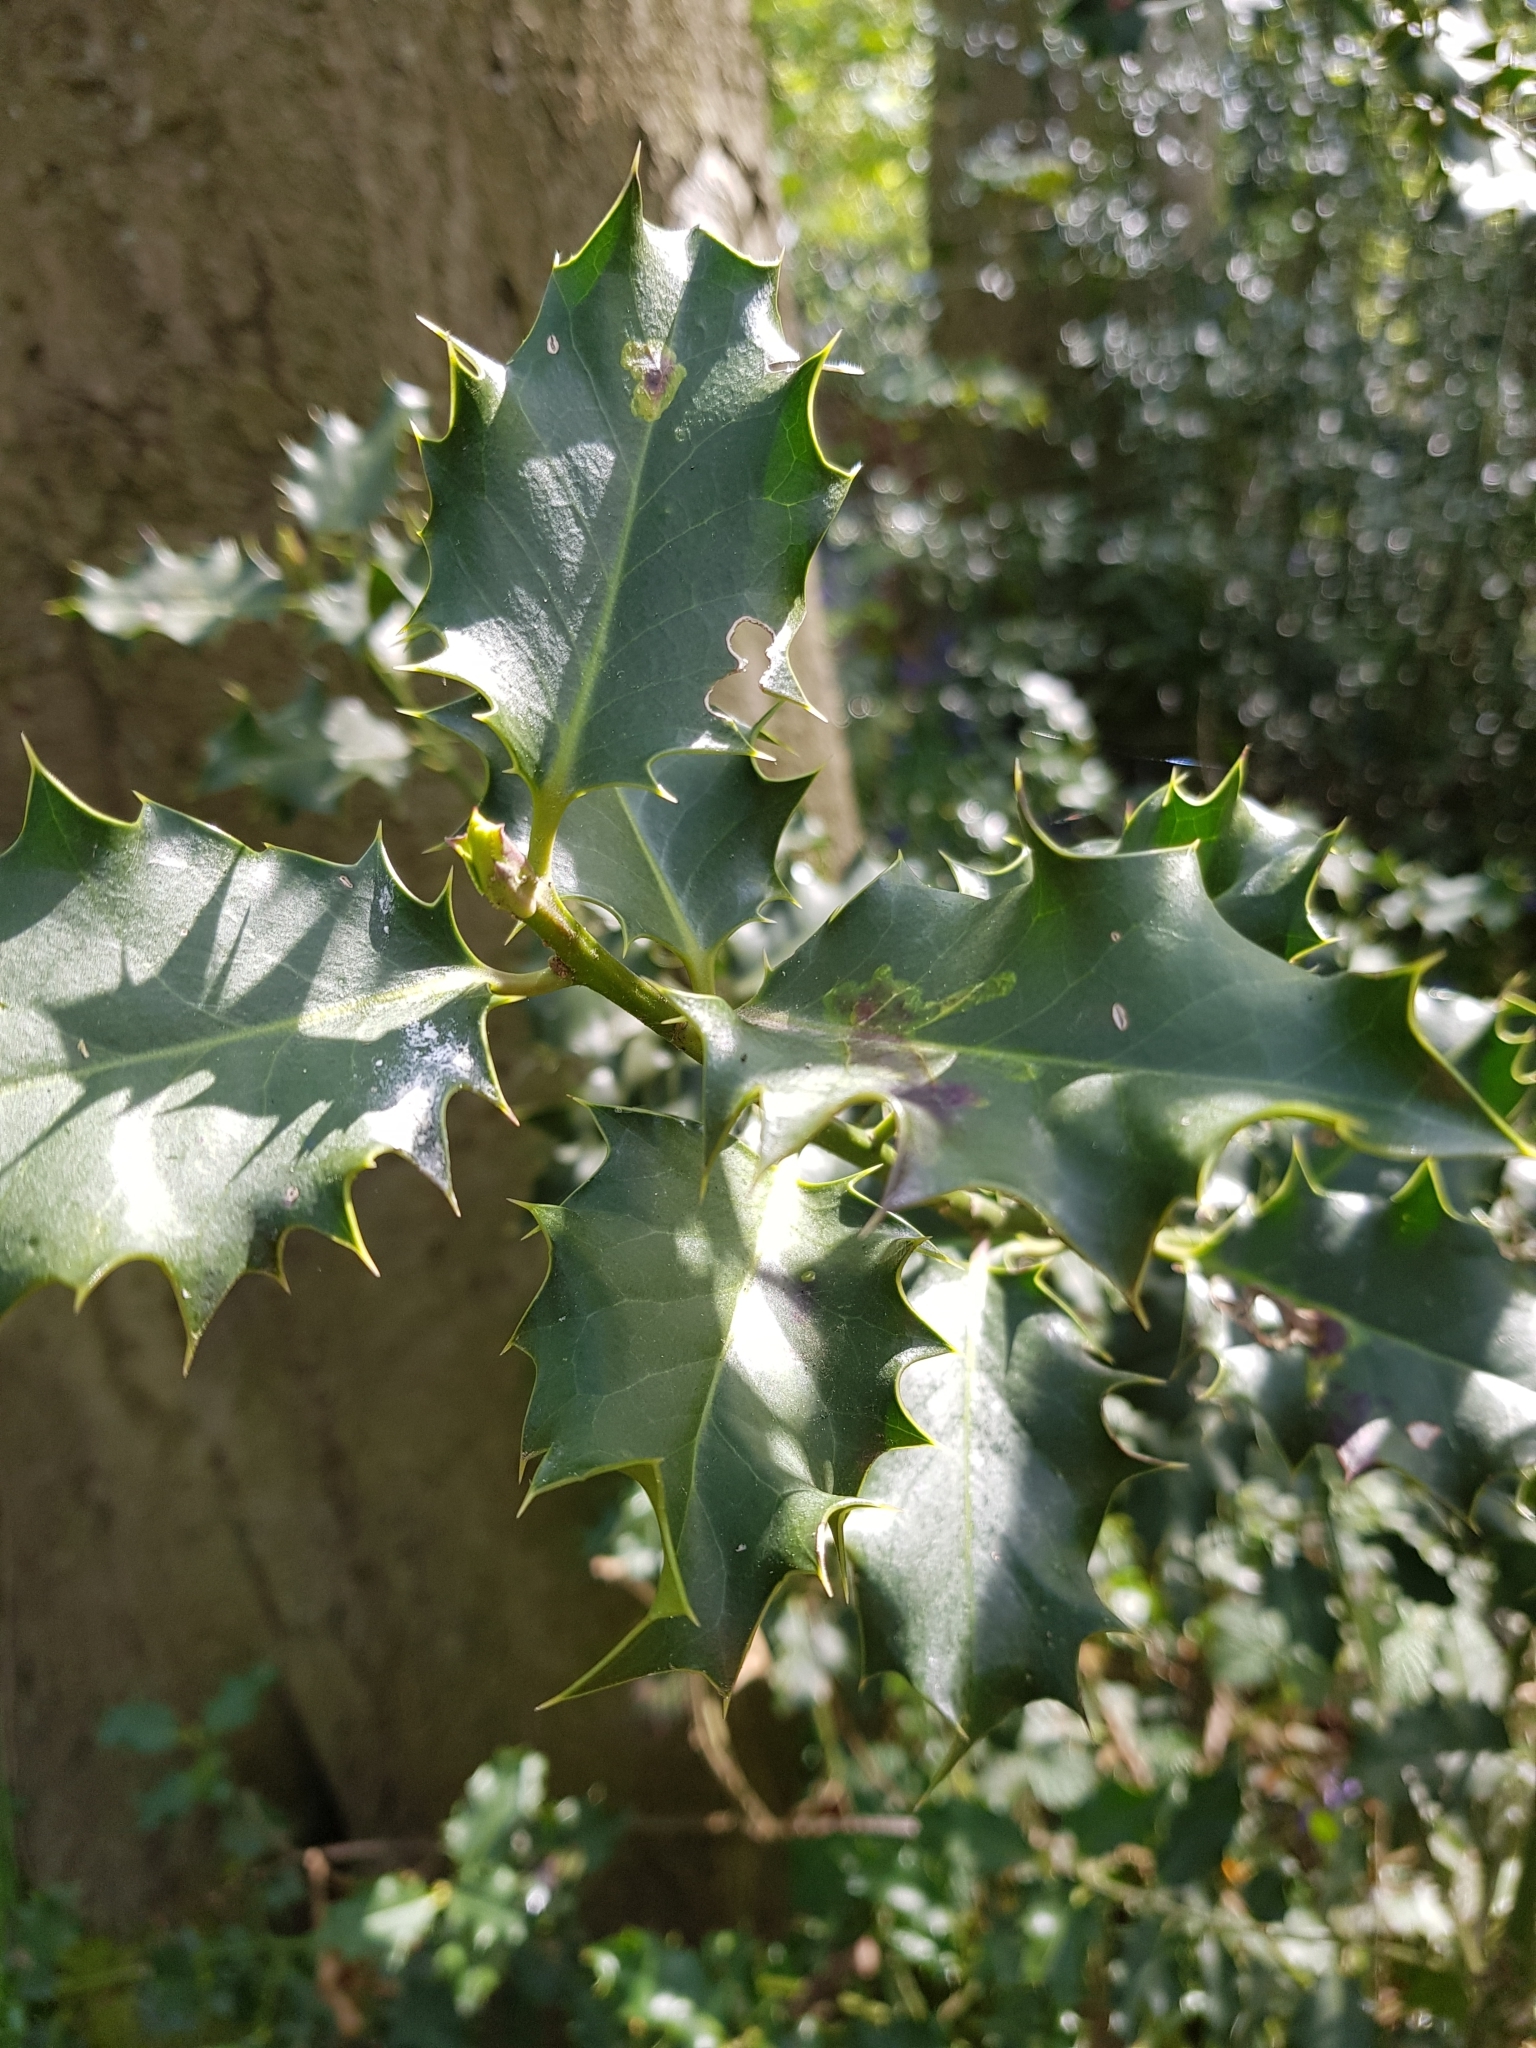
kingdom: Plantae
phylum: Tracheophyta
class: Magnoliopsida
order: Aquifoliales
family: Aquifoliaceae
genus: Ilex
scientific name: Ilex aquifolium
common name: English holly
